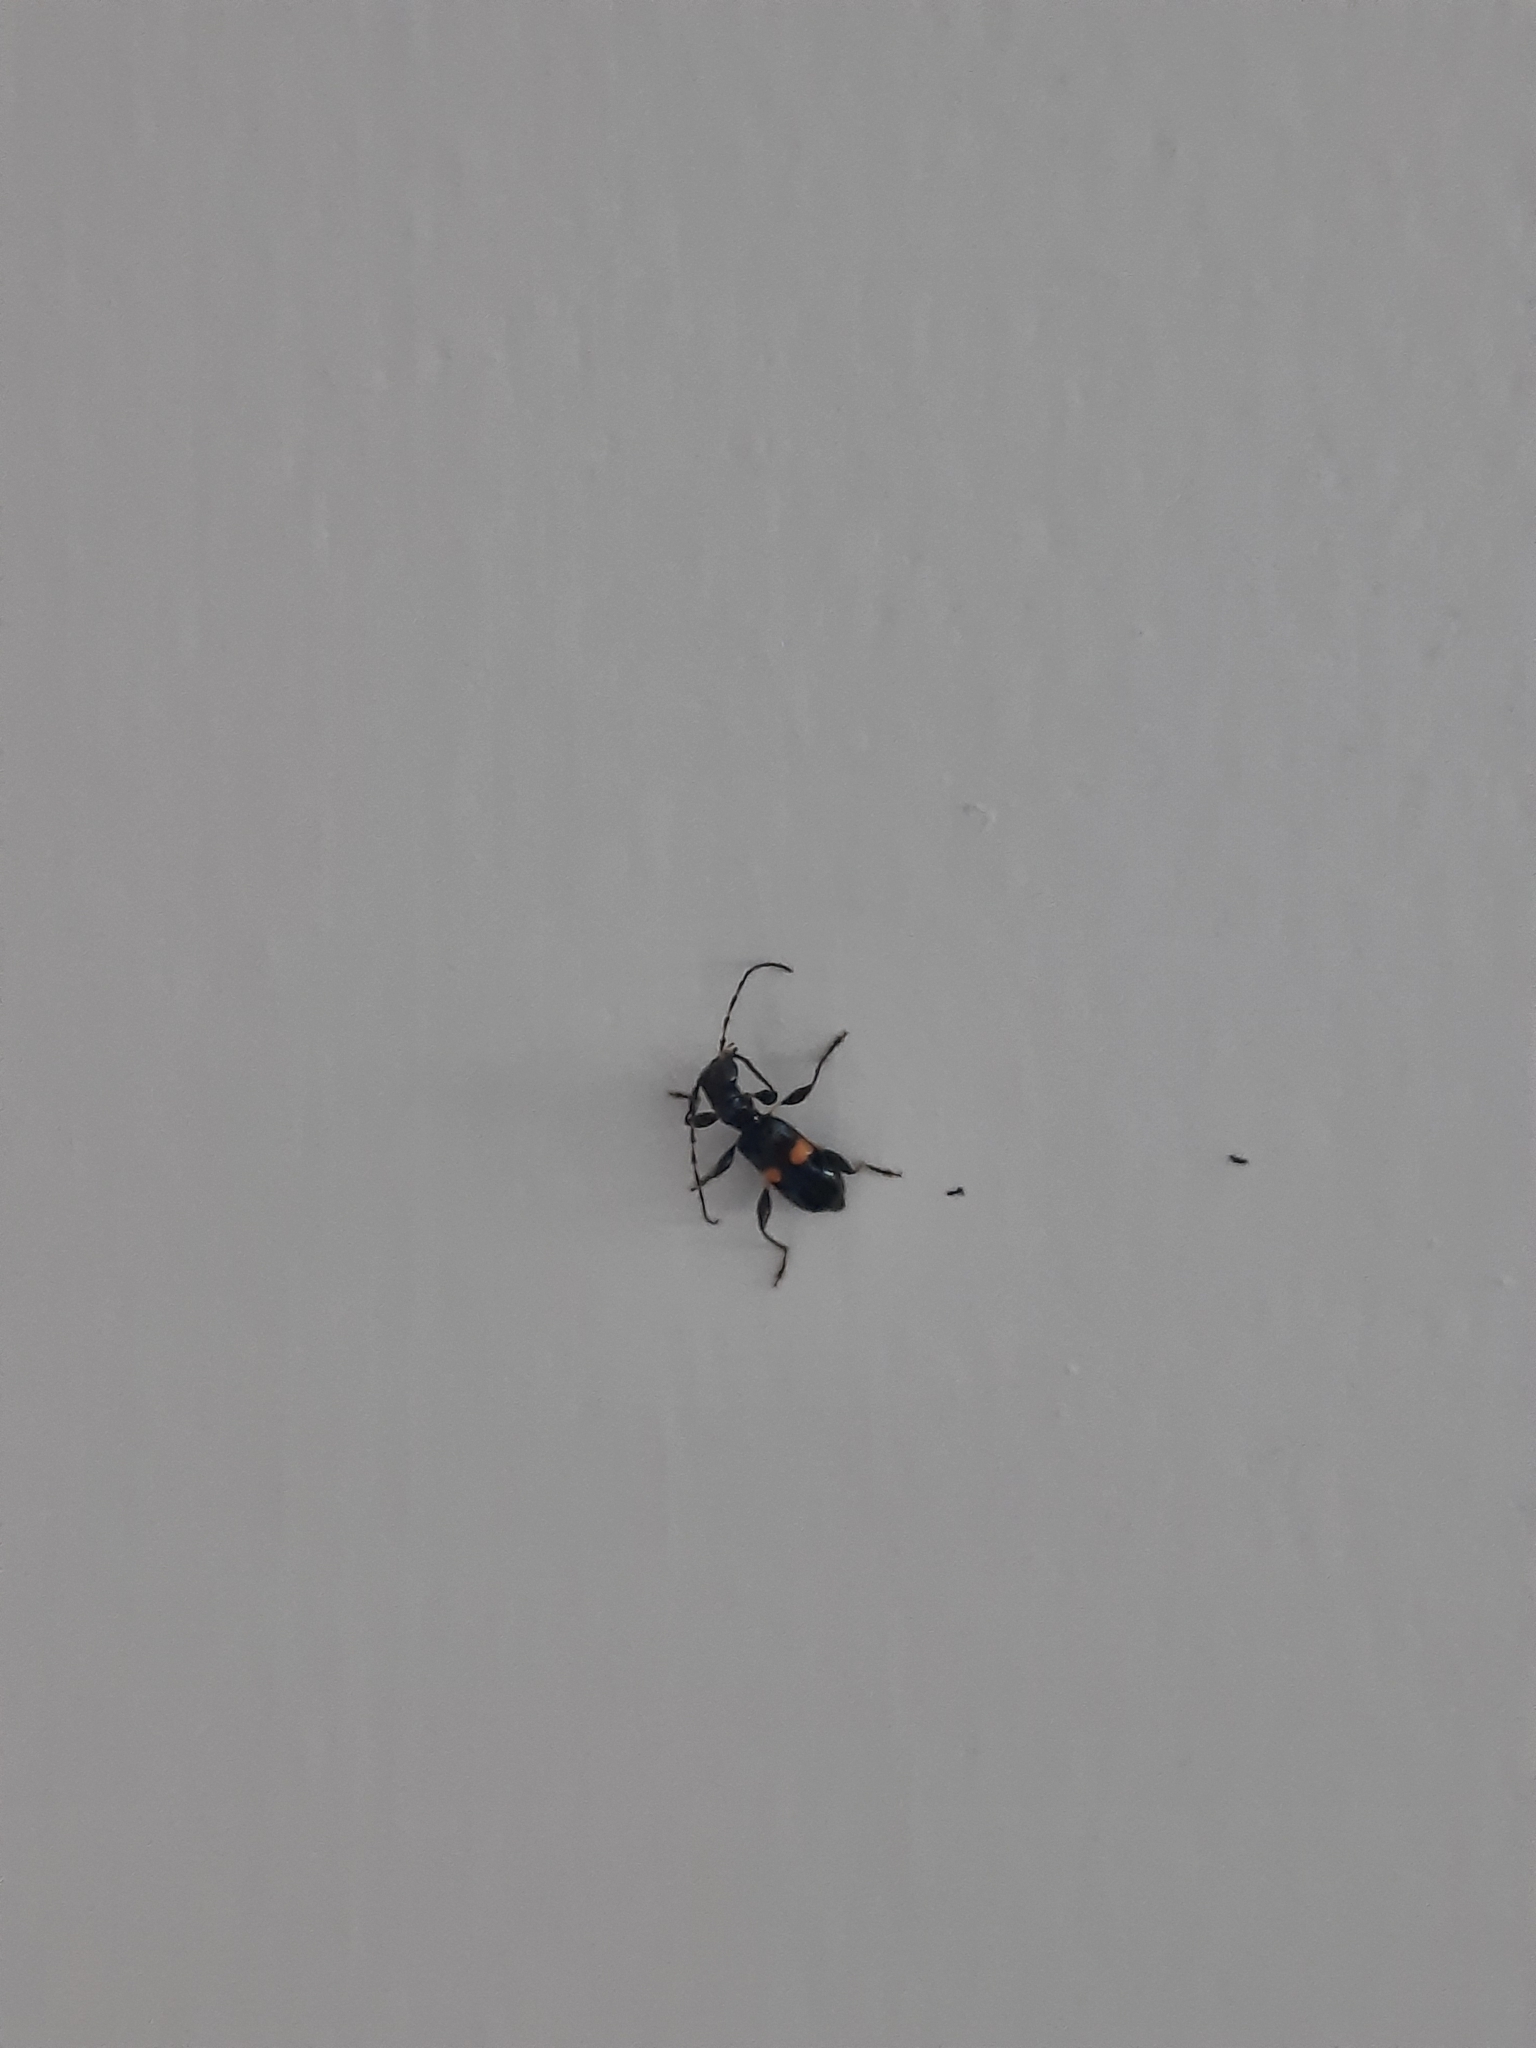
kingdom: Animalia
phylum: Arthropoda
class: Insecta
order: Coleoptera
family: Cerambycidae
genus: Zorion
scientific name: Zorion guttigerum
